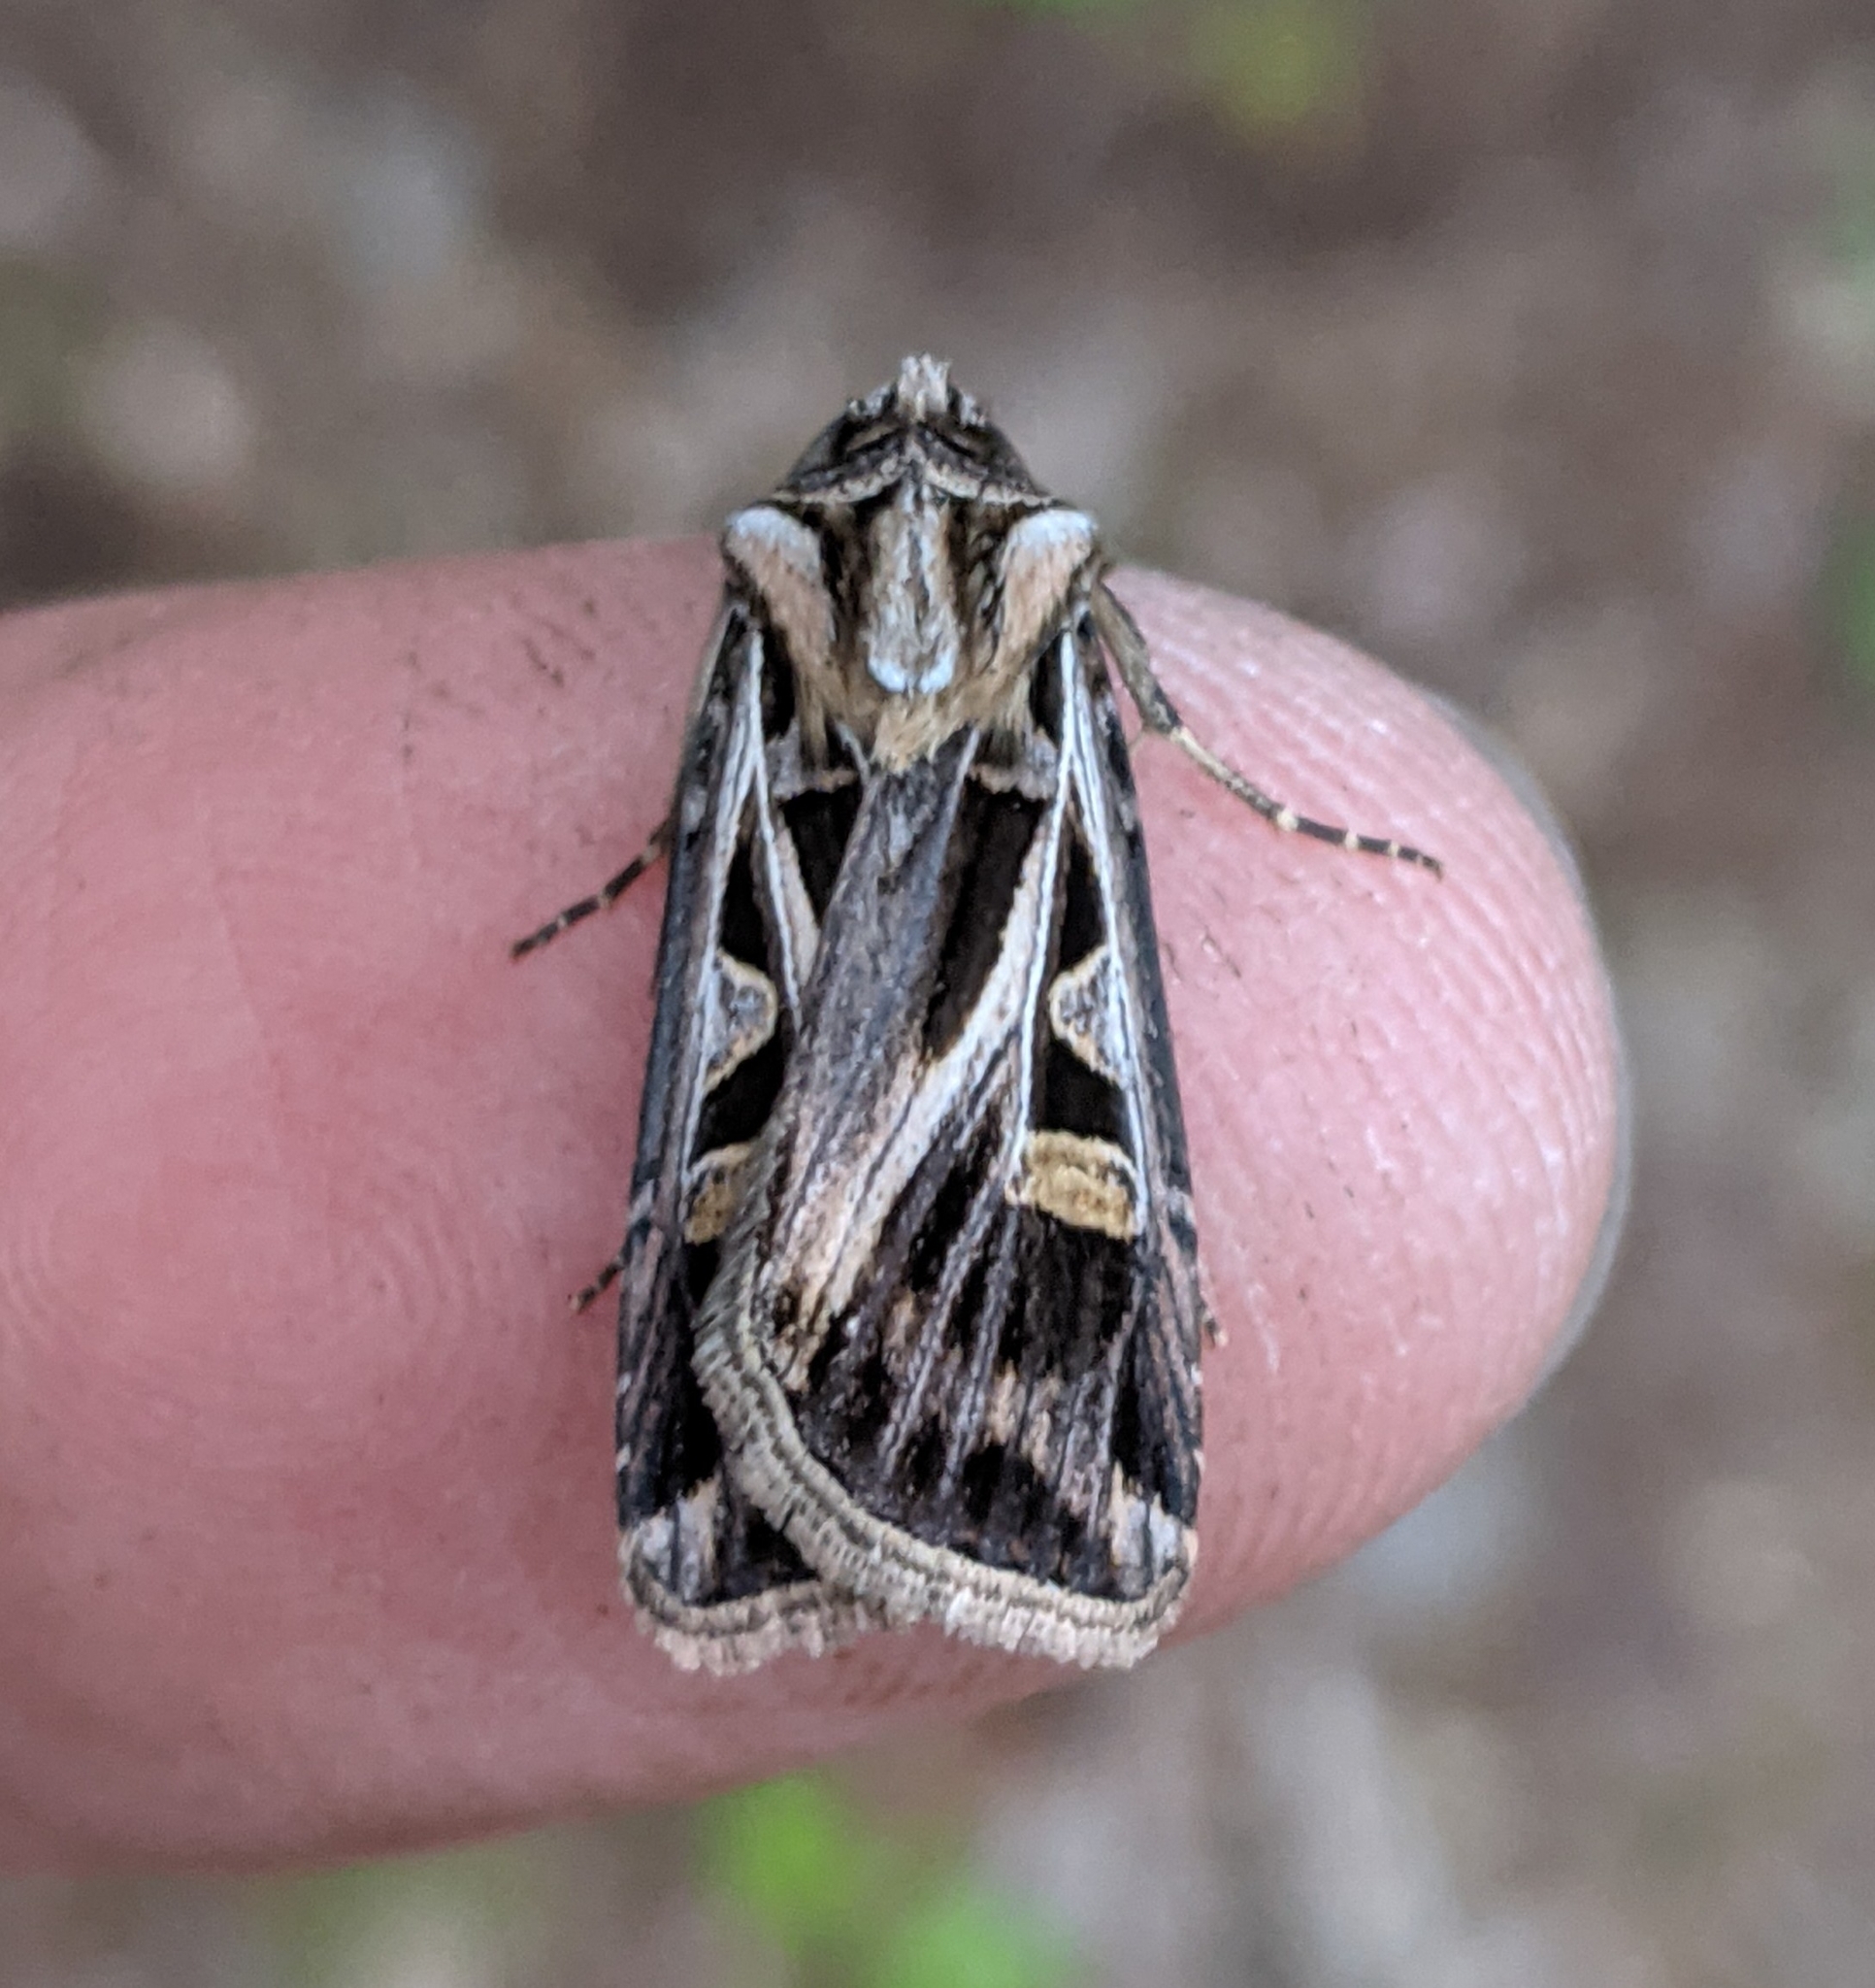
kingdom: Animalia
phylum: Arthropoda
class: Insecta
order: Lepidoptera
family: Noctuidae
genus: Feltia
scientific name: Feltia jaculifera
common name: Dingy cutworm moth
